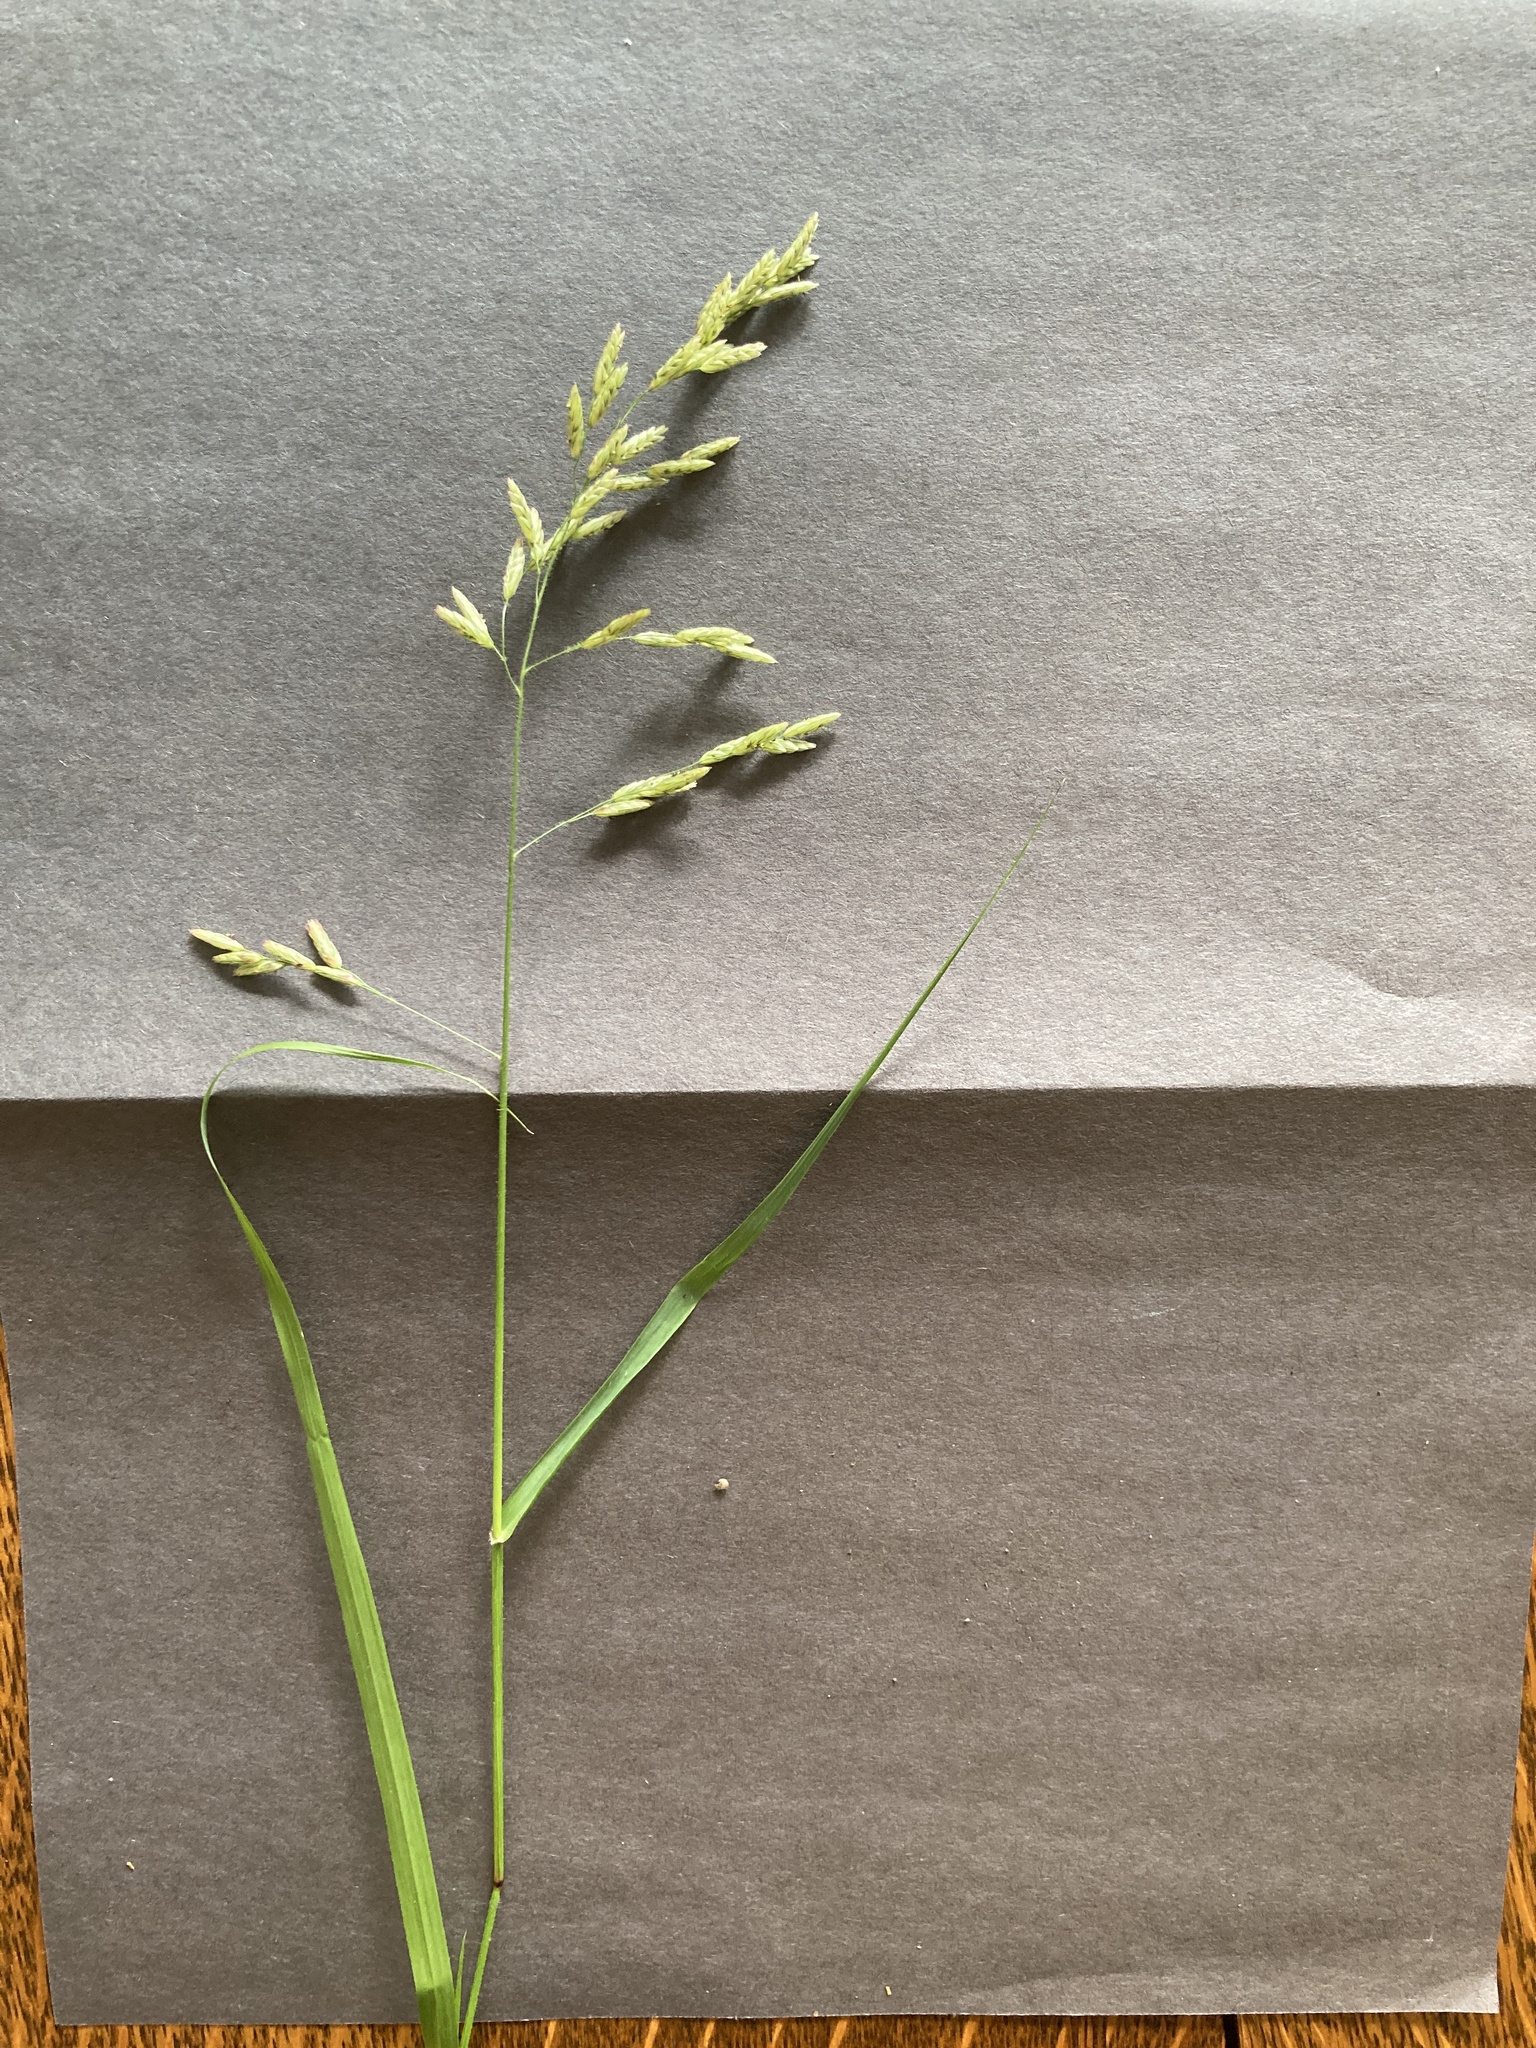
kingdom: Plantae
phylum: Tracheophyta
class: Liliopsida
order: Poales
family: Poaceae
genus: Tridens
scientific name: Tridens texanus
